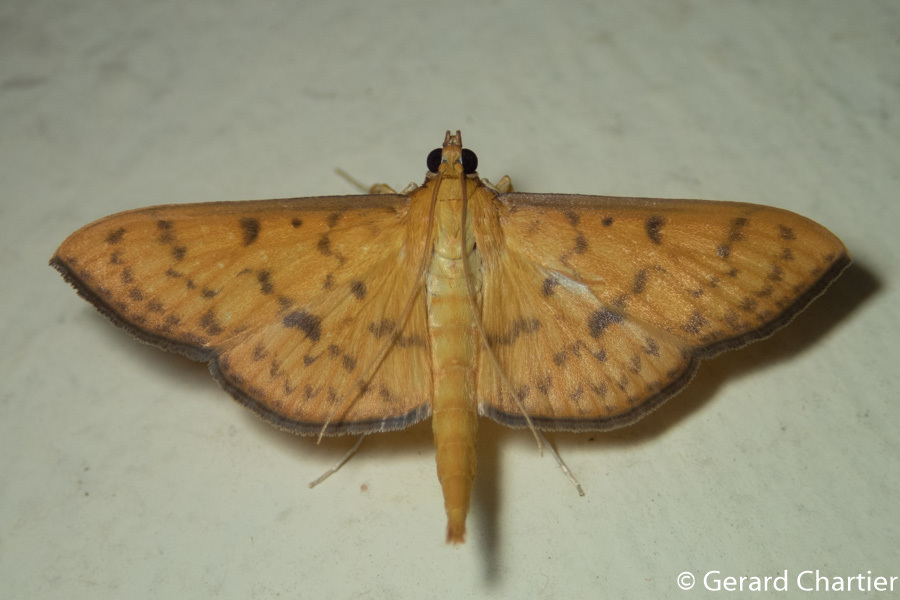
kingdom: Animalia
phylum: Arthropoda
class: Insecta
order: Lepidoptera
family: Crambidae
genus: Caldubotys
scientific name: Caldubotys caldusalis
